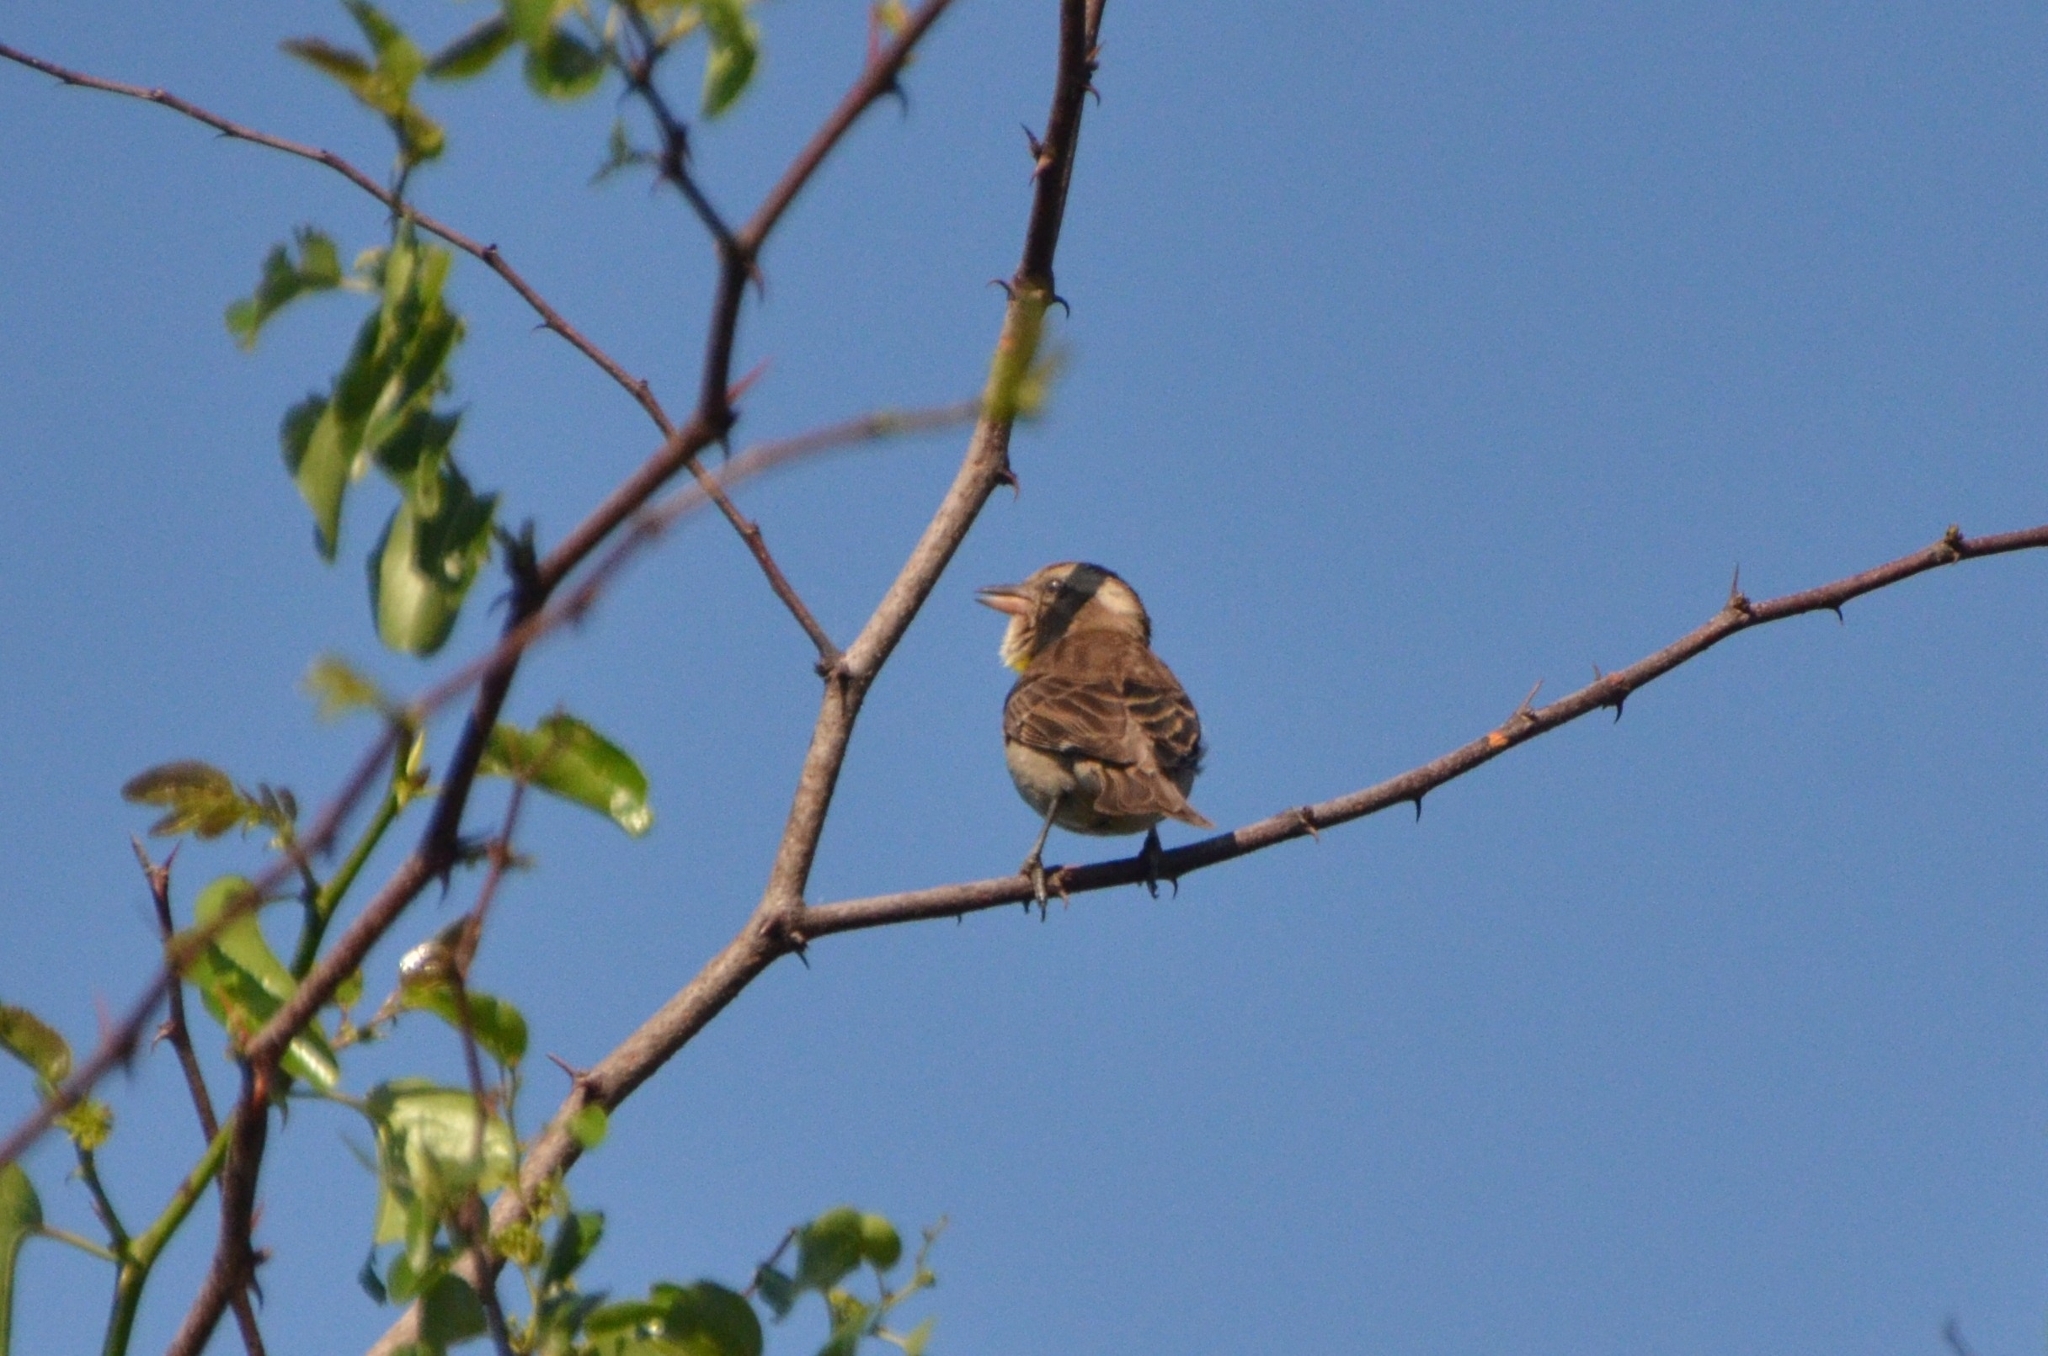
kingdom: Animalia
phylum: Chordata
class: Aves
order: Passeriformes
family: Passeridae
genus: Gymnoris
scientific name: Gymnoris superciliaris
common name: Yellow-throated petronia
